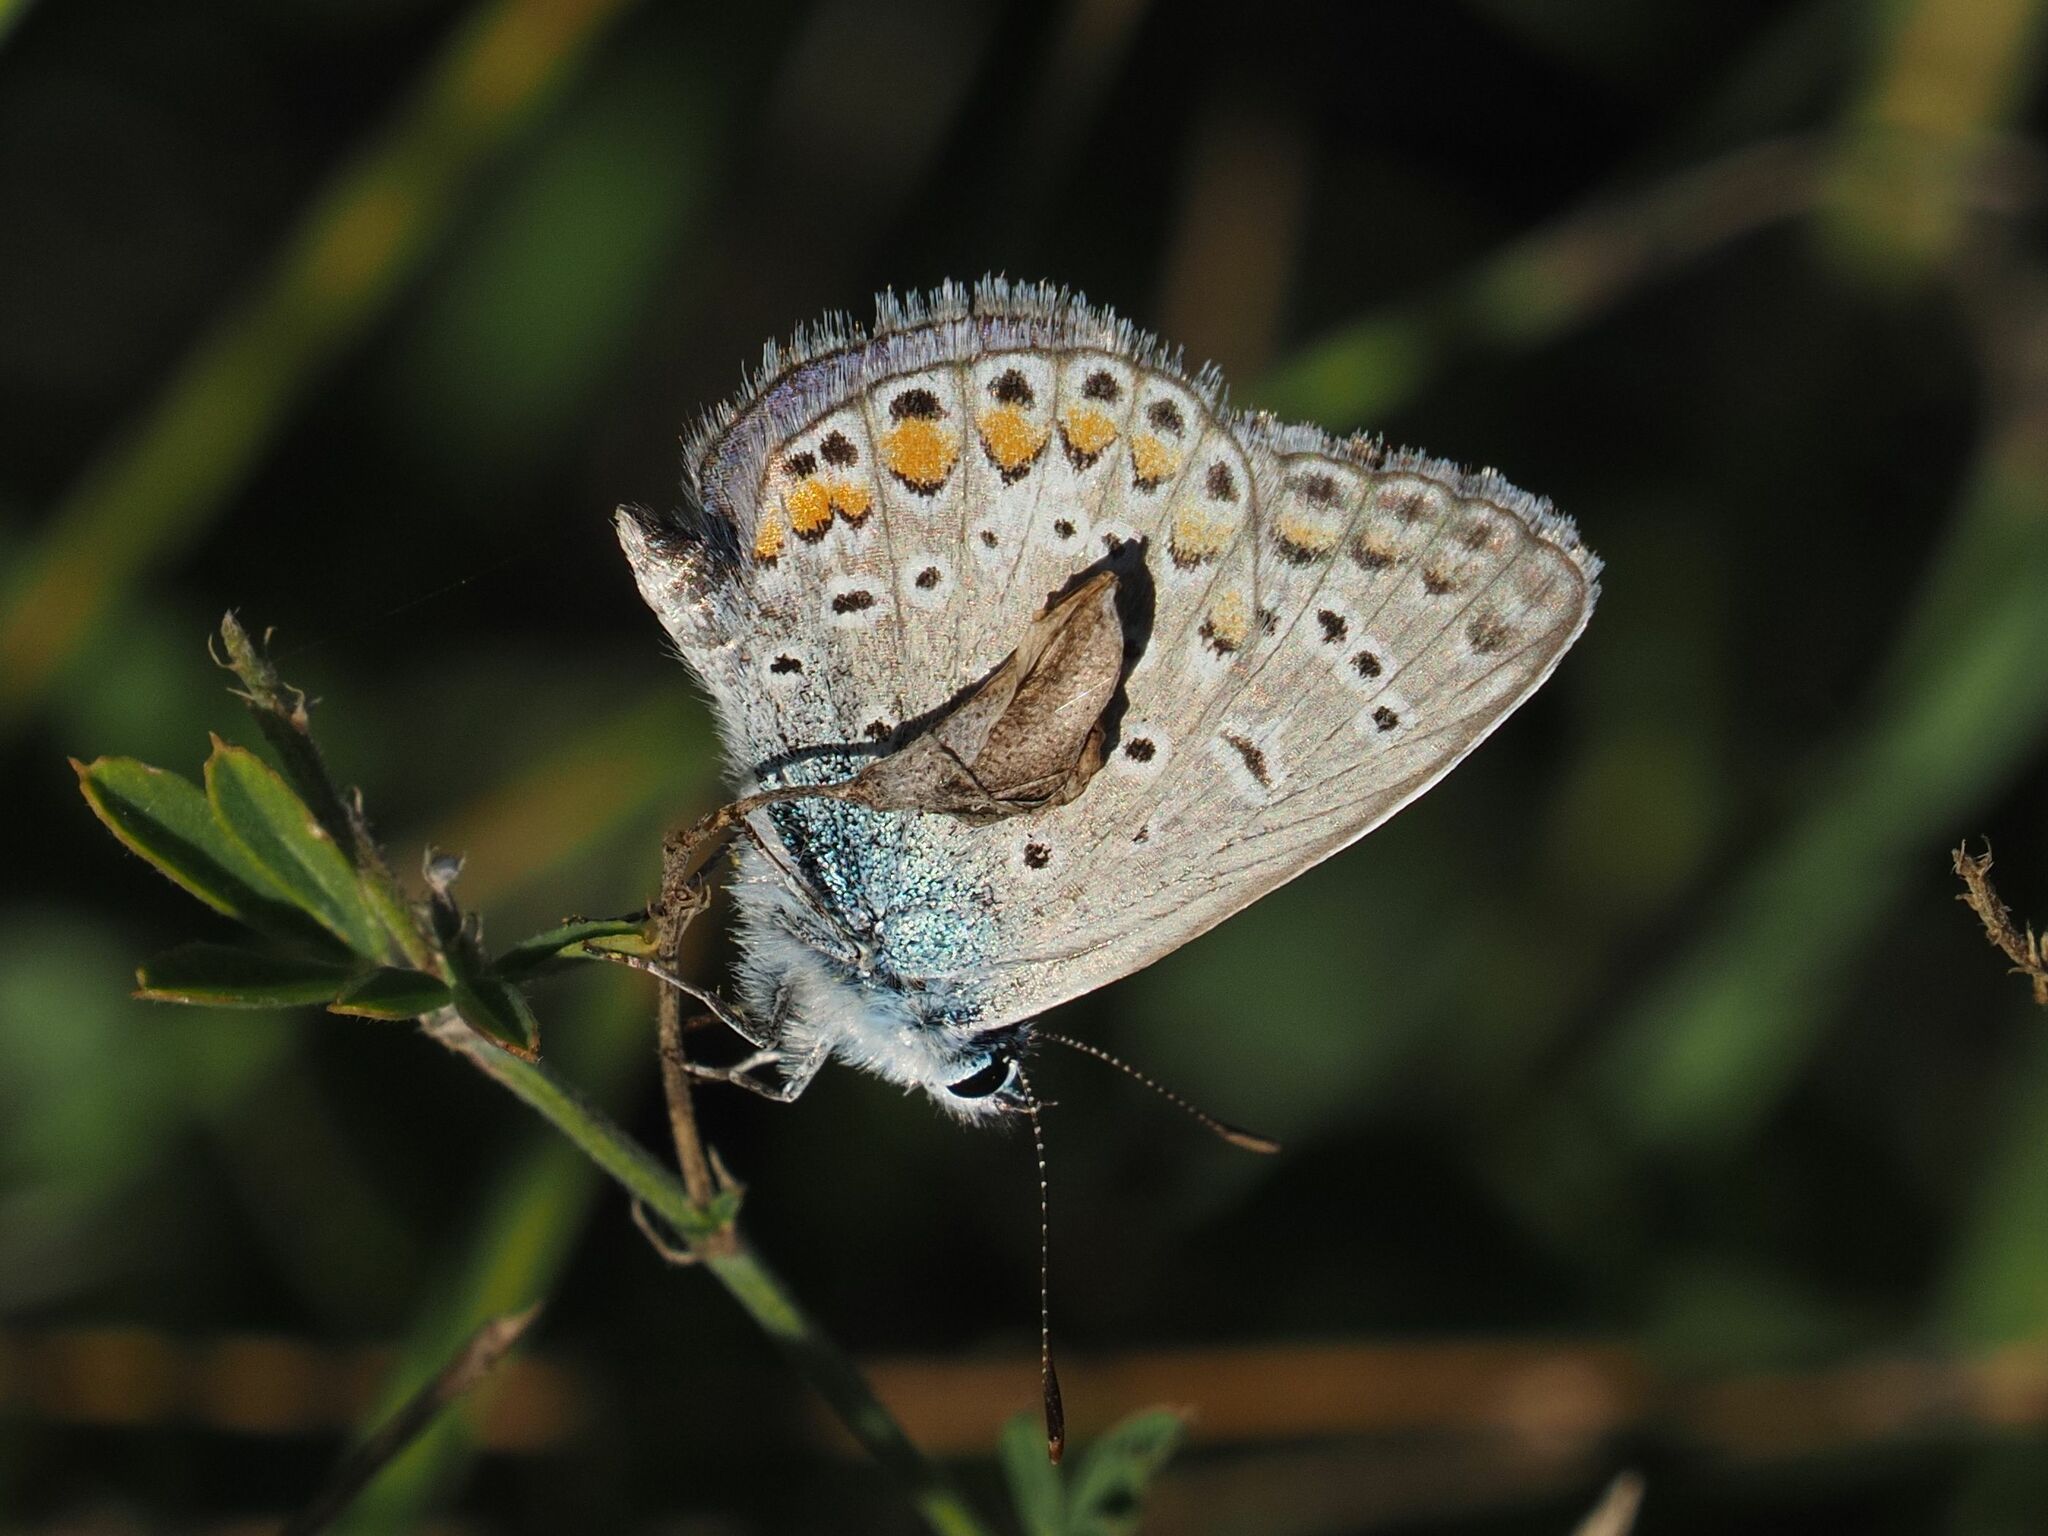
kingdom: Animalia
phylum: Arthropoda
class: Insecta
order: Lepidoptera
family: Lycaenidae
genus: Polyommatus
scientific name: Polyommatus icarus
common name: Common blue
